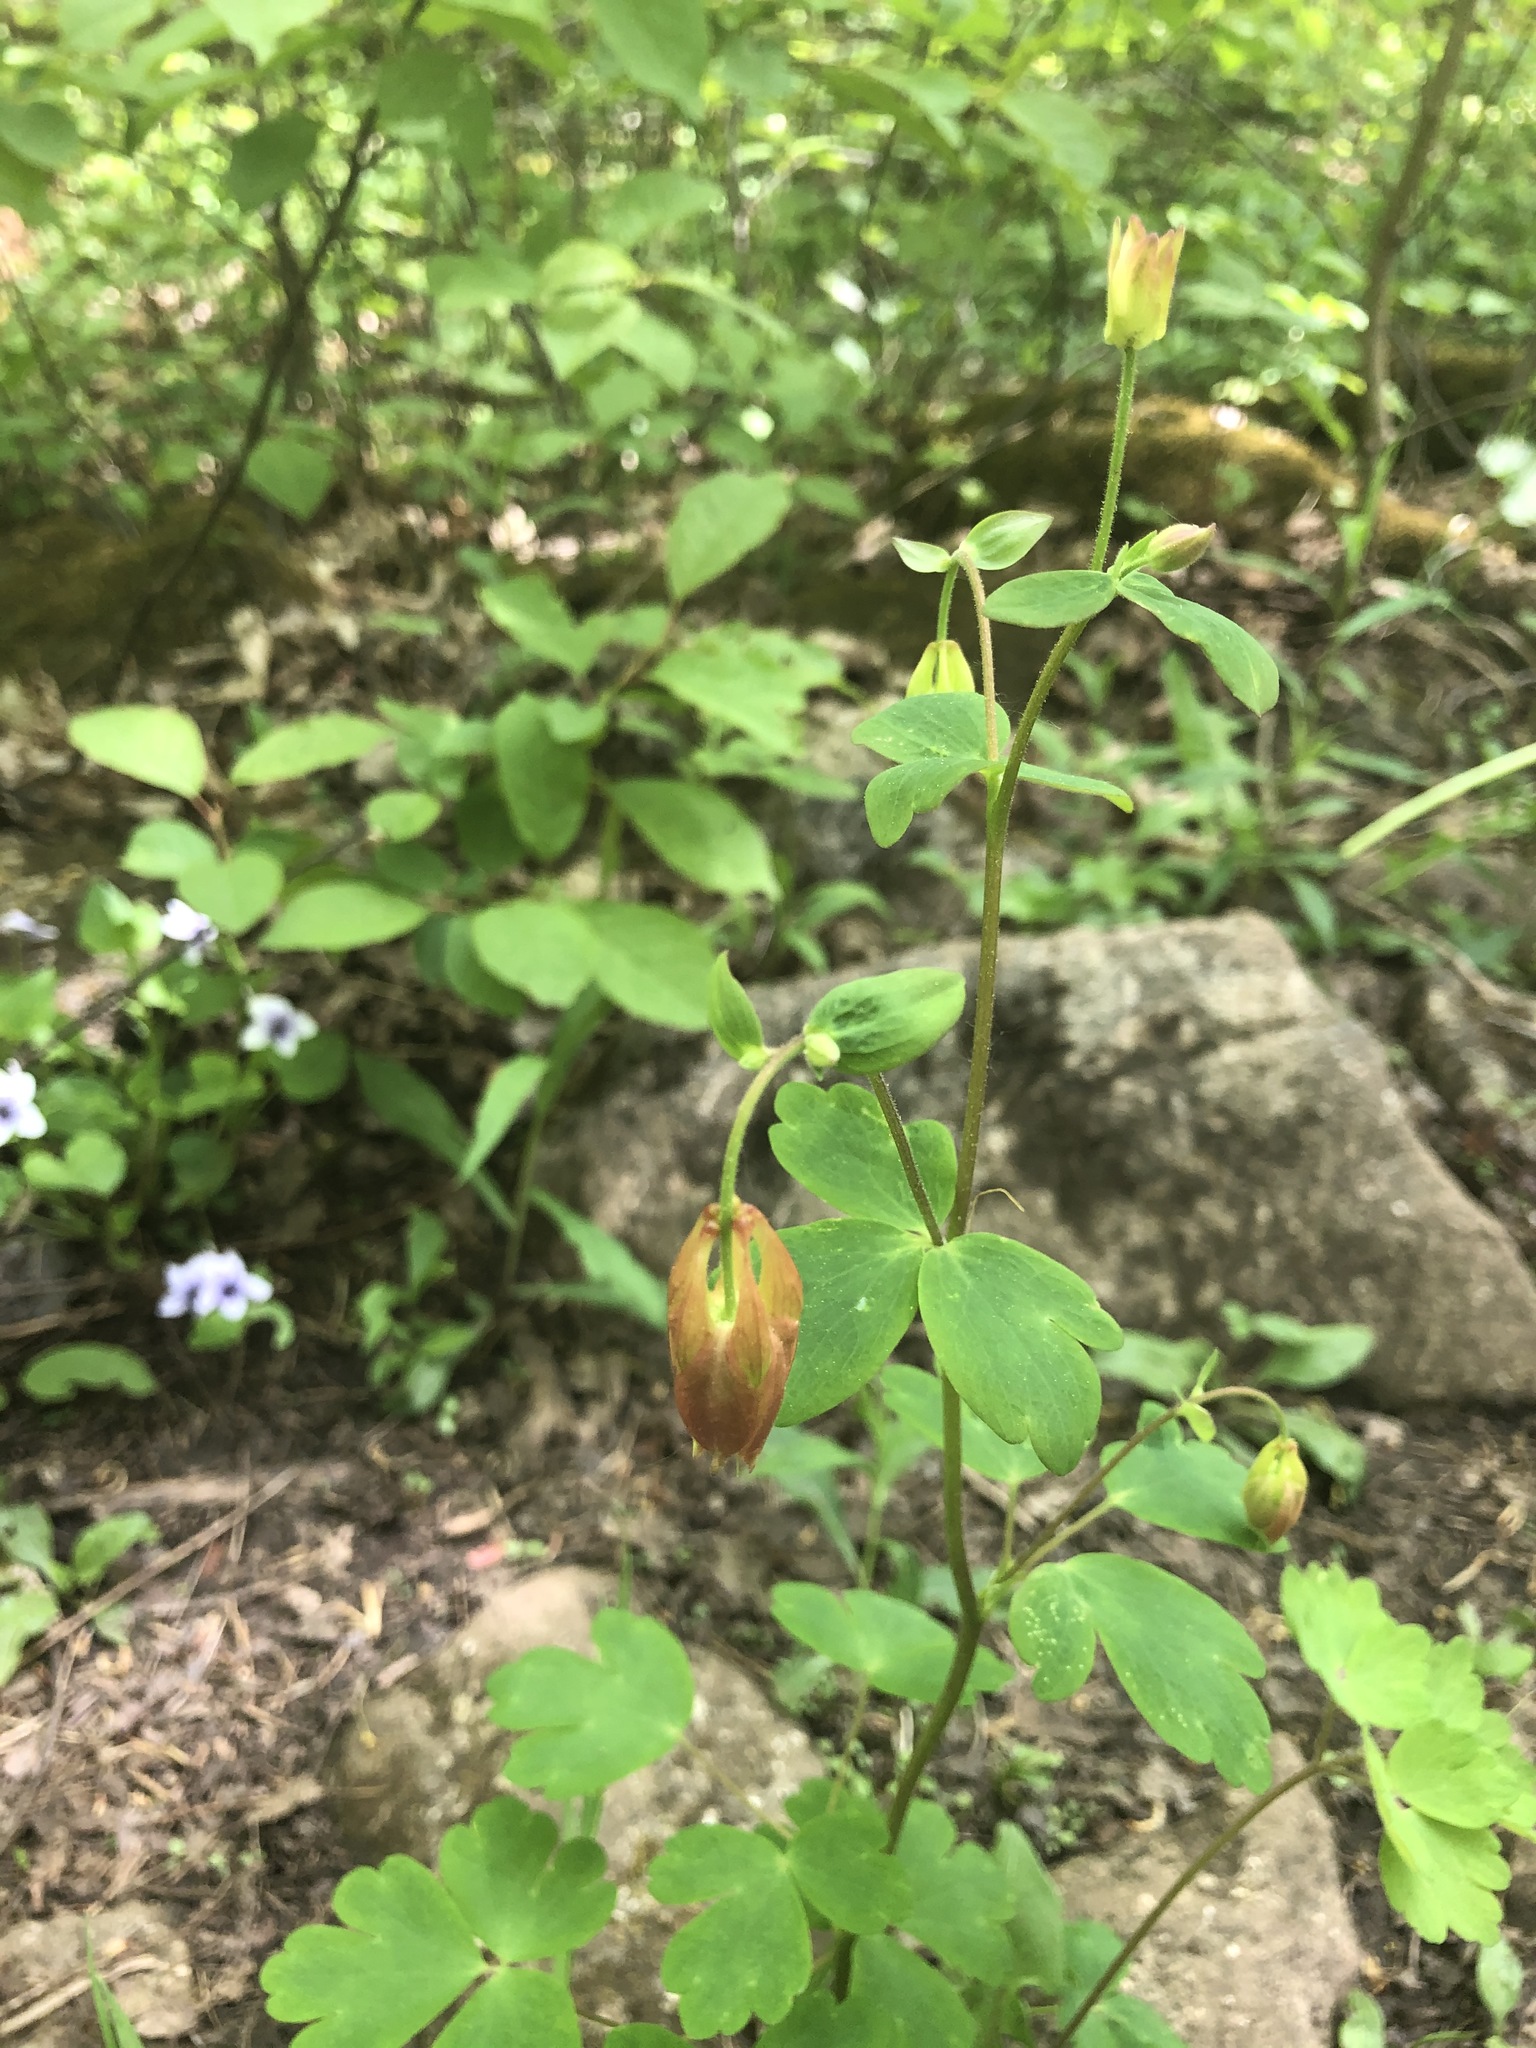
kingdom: Plantae
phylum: Tracheophyta
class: Magnoliopsida
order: Ranunculales
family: Ranunculaceae
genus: Aquilegia
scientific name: Aquilegia canadensis
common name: American columbine
